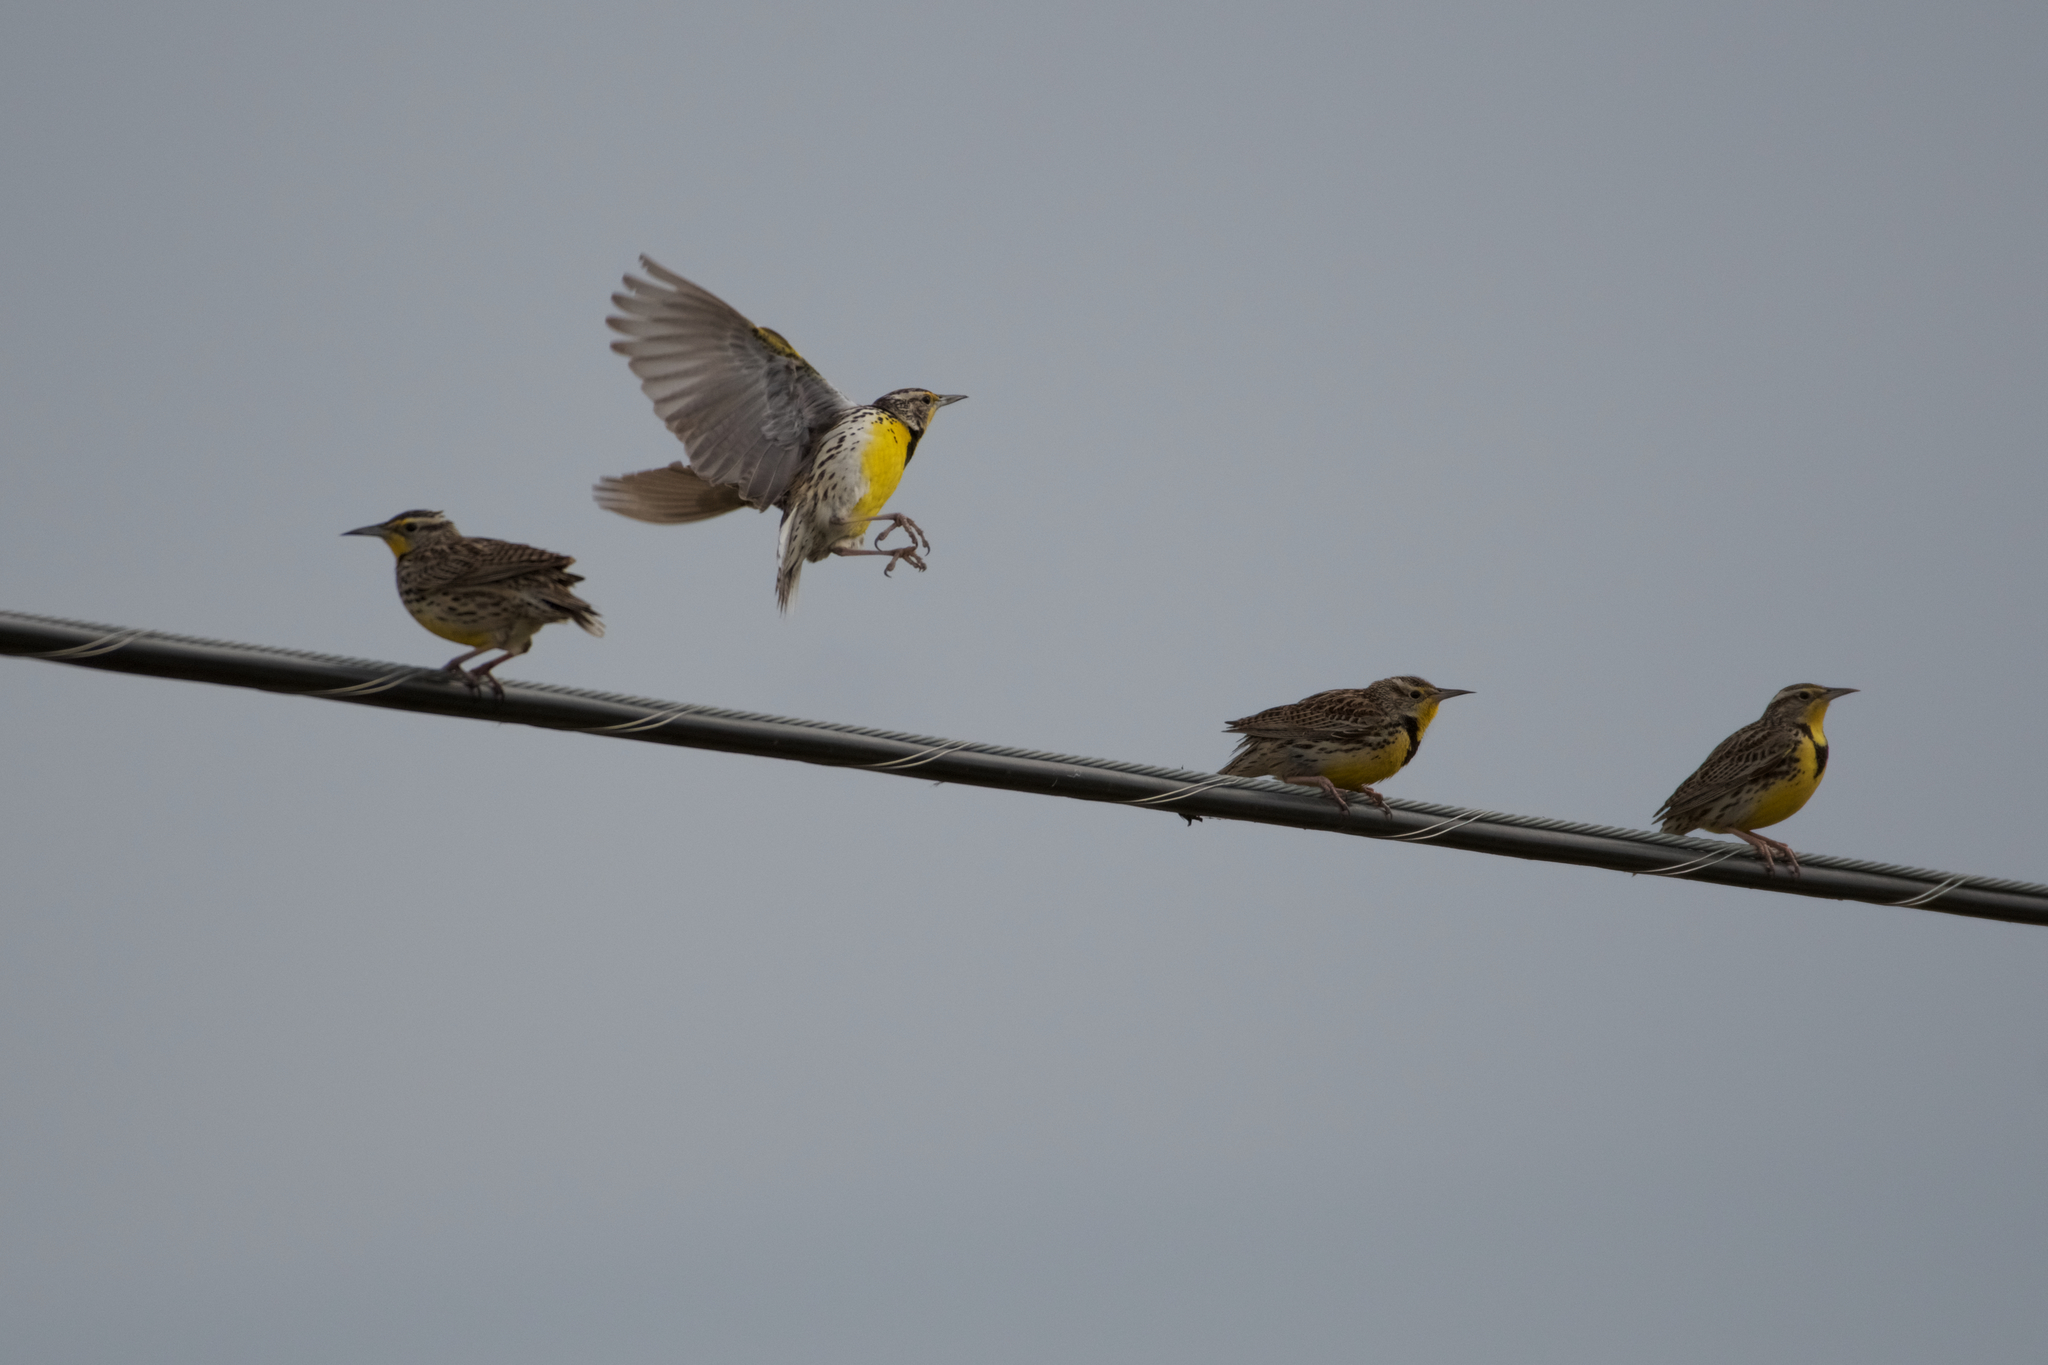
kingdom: Animalia
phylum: Chordata
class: Aves
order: Passeriformes
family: Icteridae
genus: Sturnella
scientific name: Sturnella neglecta
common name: Western meadowlark
